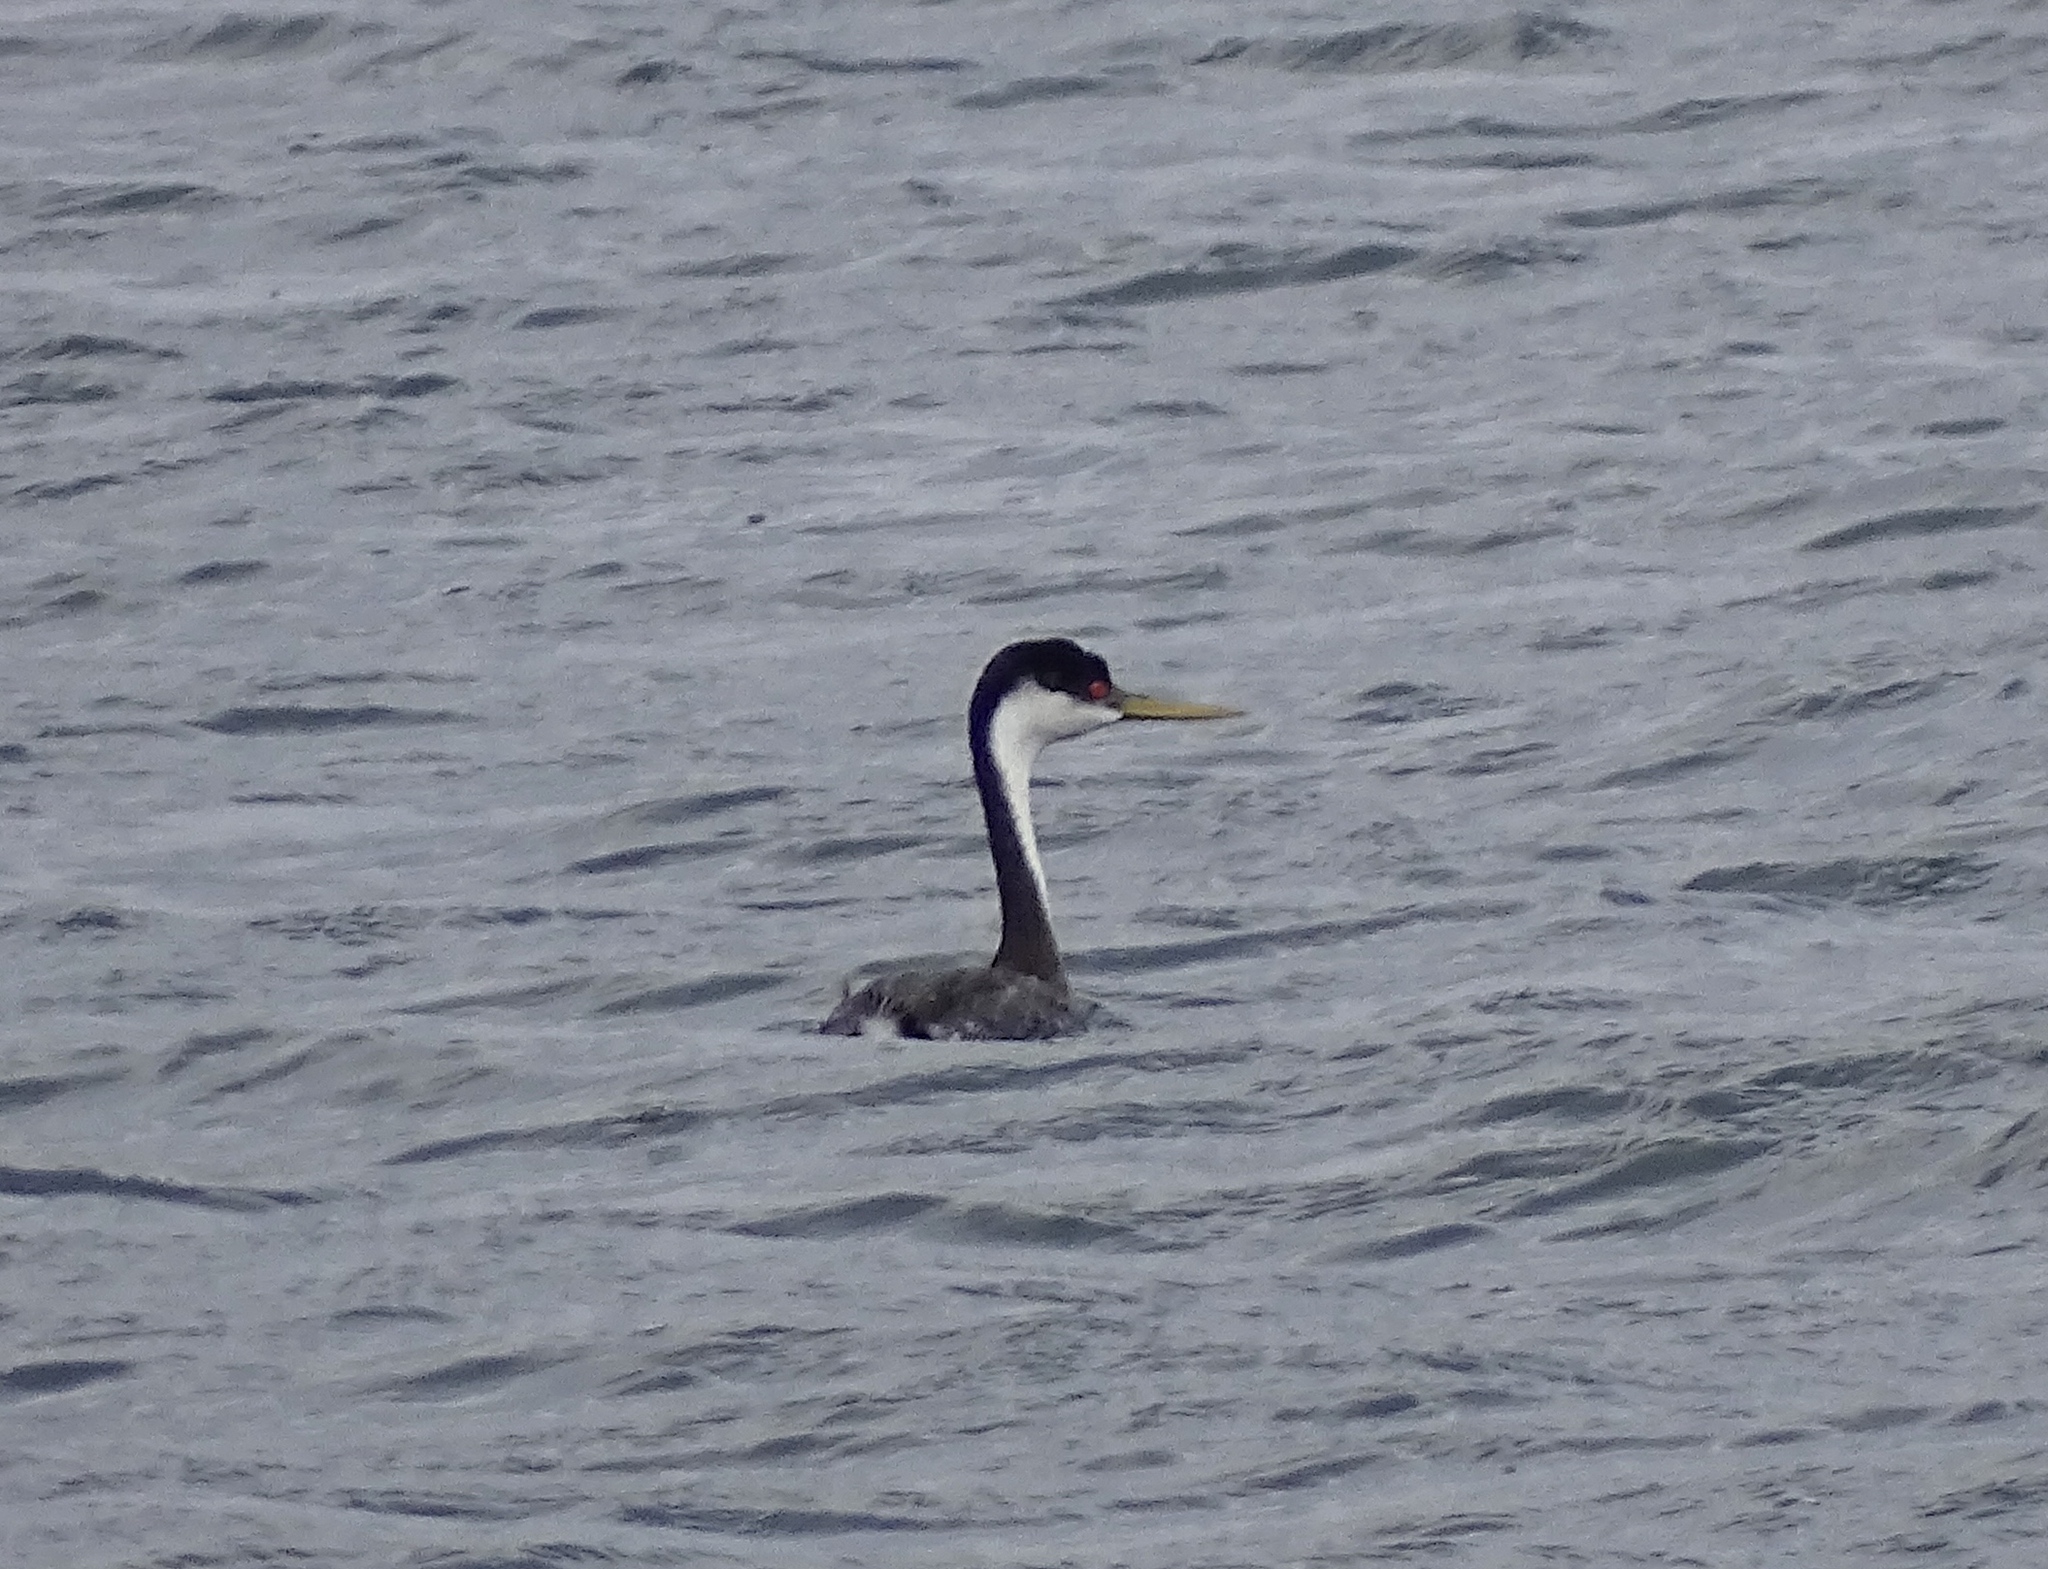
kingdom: Animalia
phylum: Chordata
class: Aves
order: Podicipediformes
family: Podicipedidae
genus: Aechmophorus
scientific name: Aechmophorus occidentalis
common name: Western grebe
